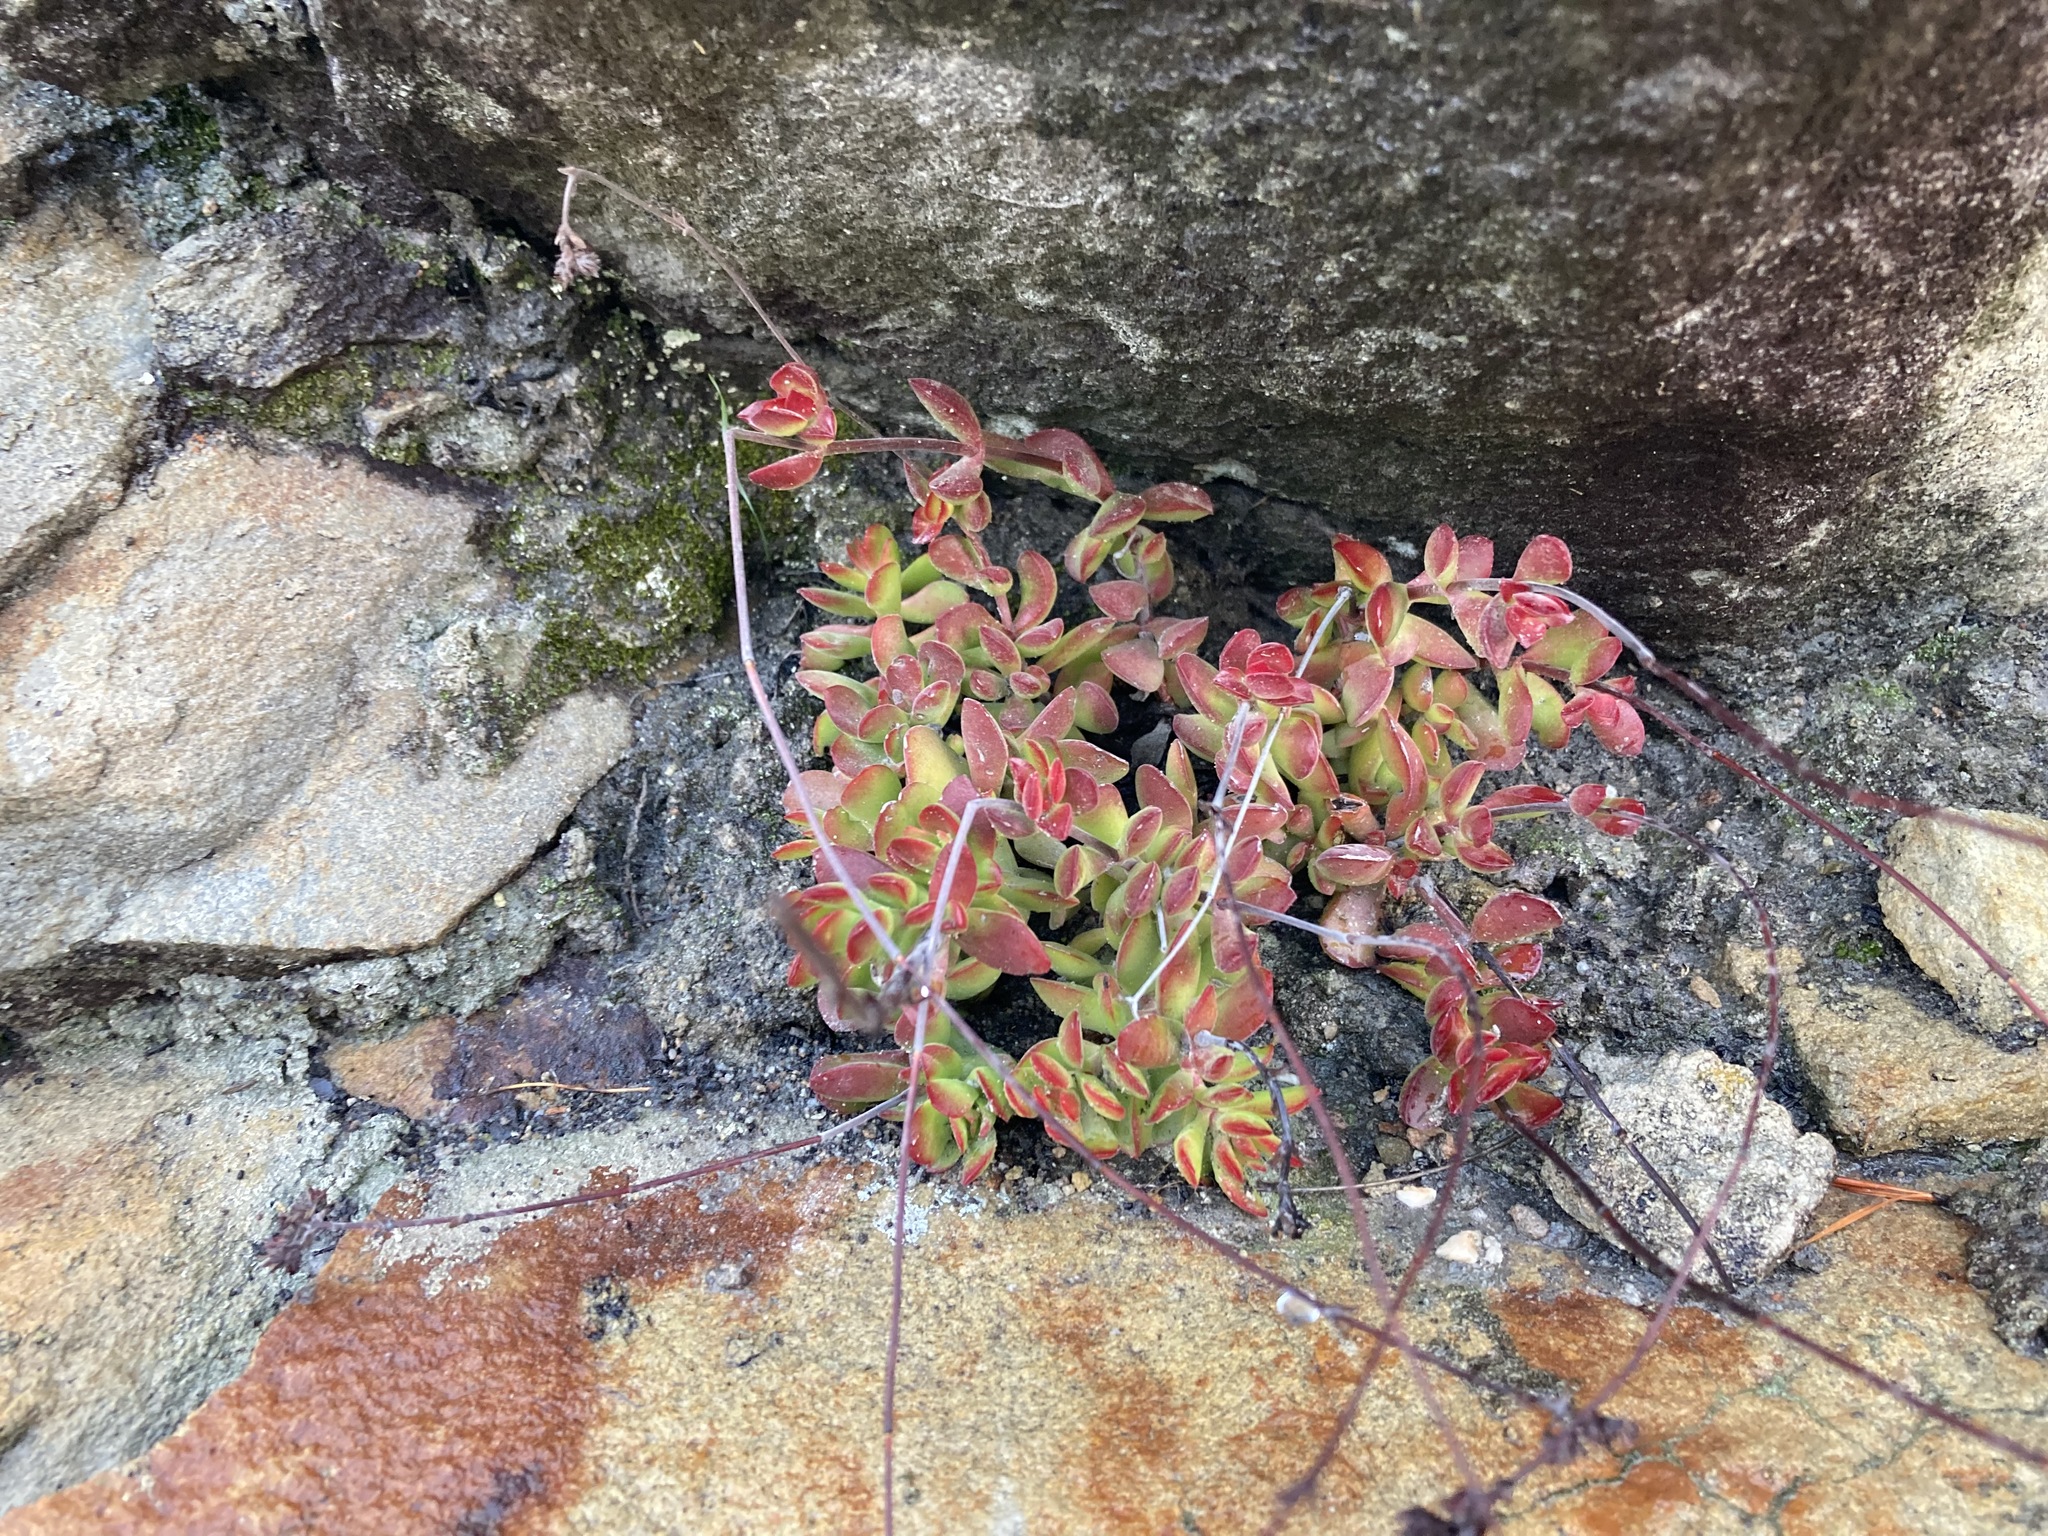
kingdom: Plantae
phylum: Tracheophyta
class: Magnoliopsida
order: Saxifragales
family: Crassulaceae
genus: Crassula
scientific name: Crassula atropurpurea
